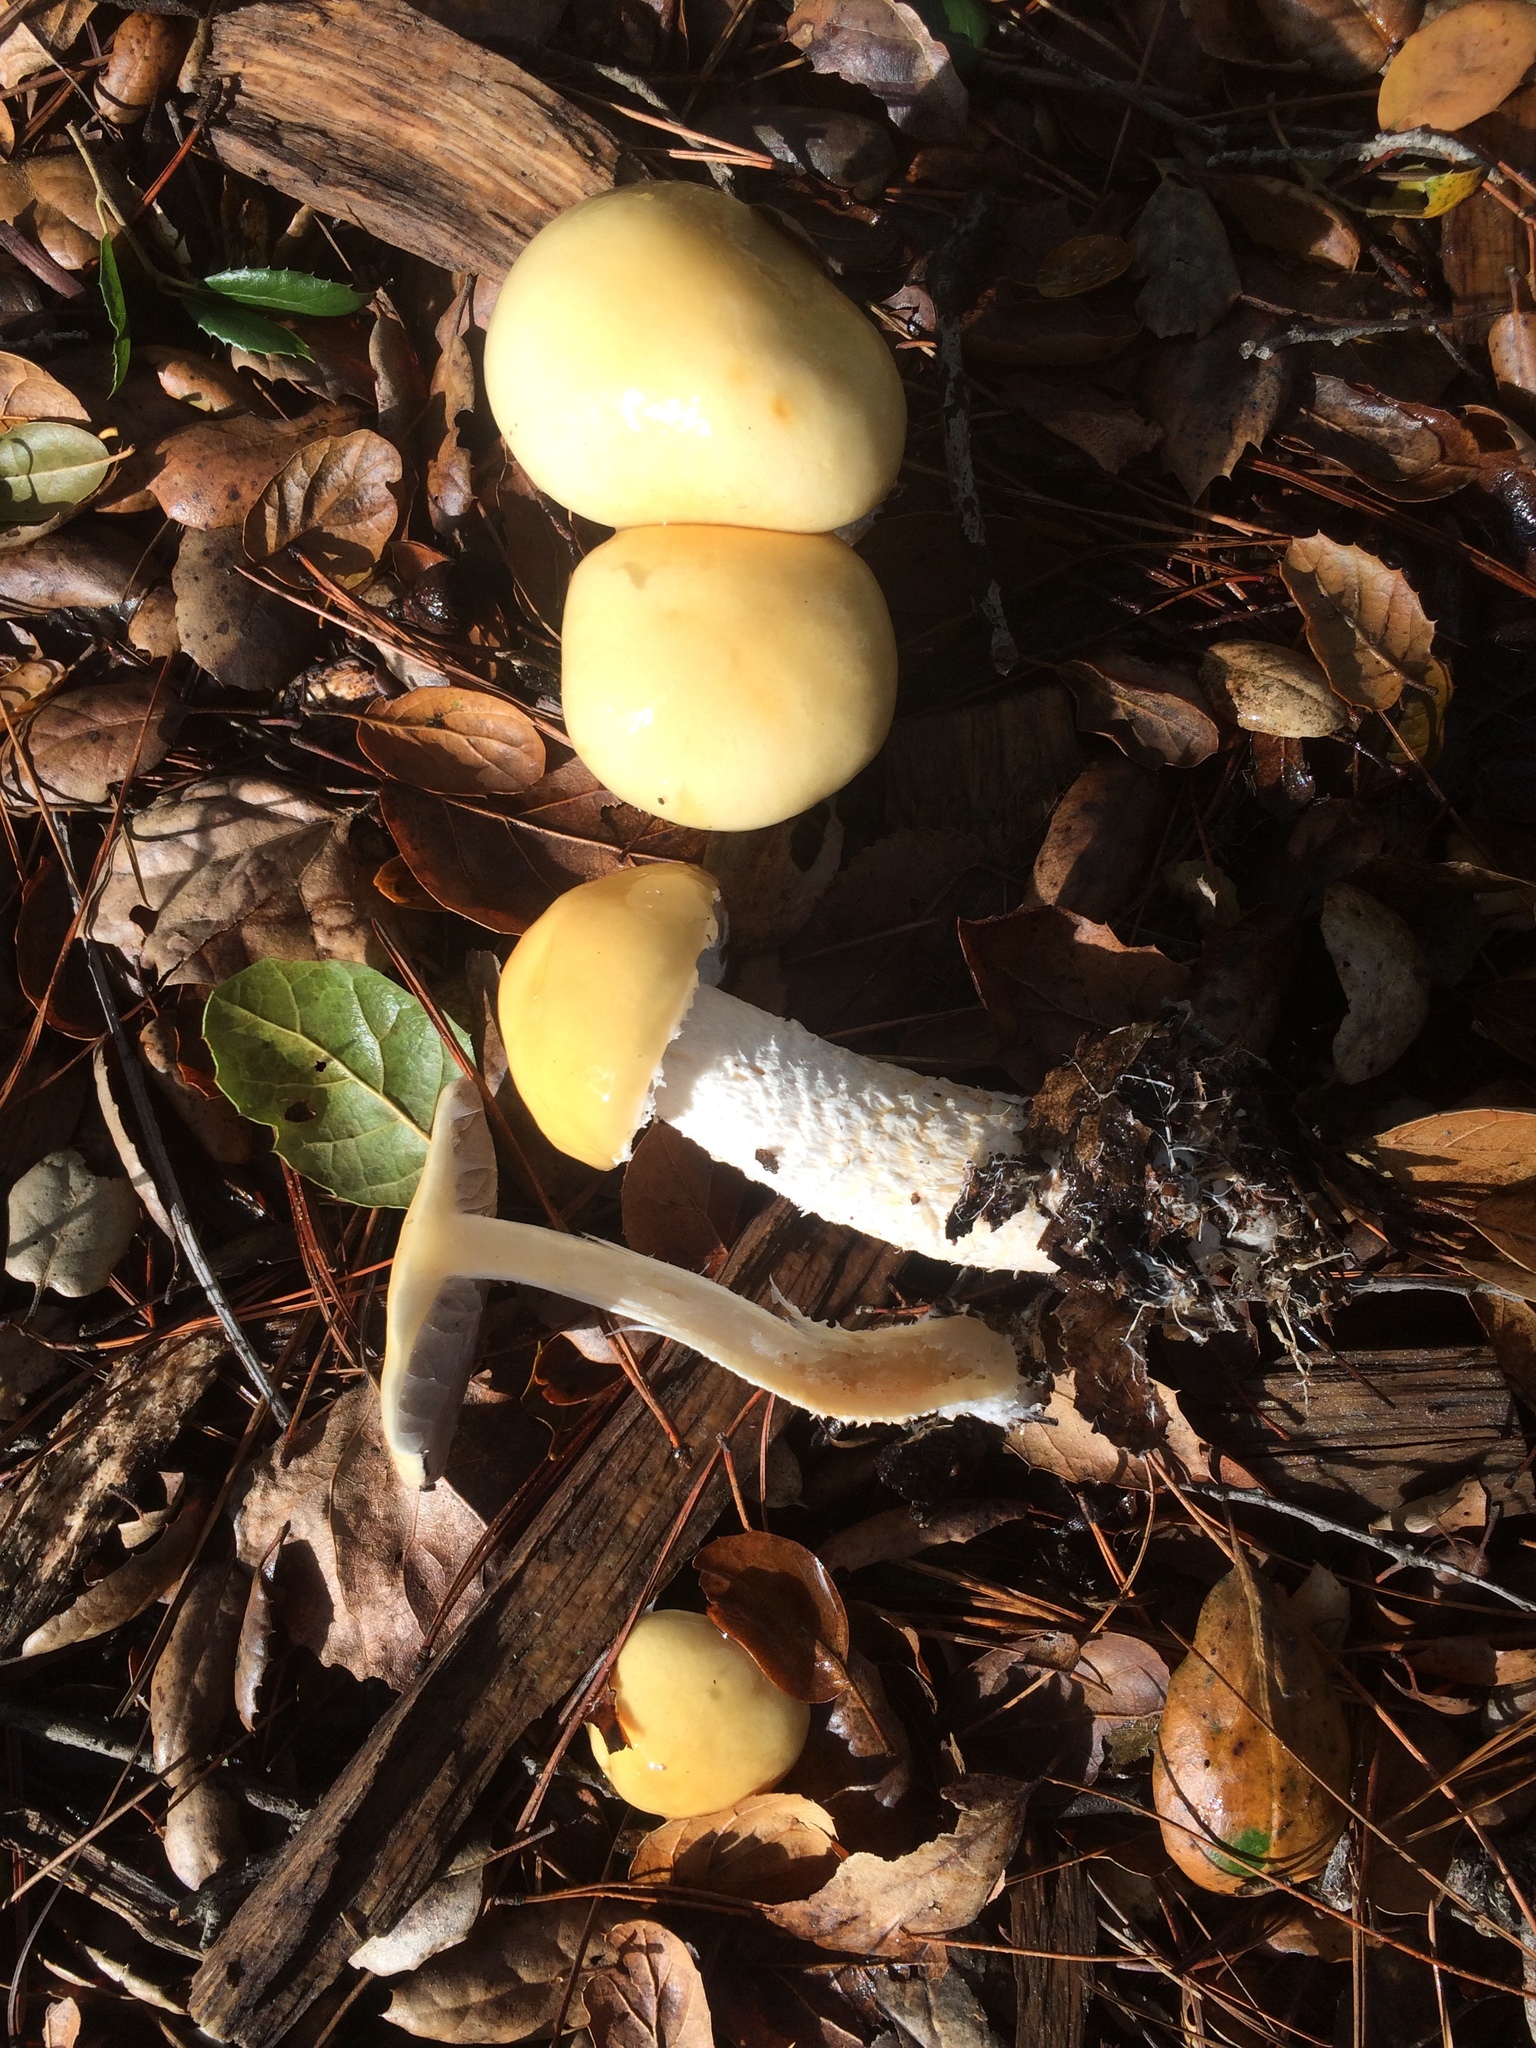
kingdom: Fungi
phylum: Basidiomycota
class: Agaricomycetes
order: Agaricales
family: Strophariaceae
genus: Stropharia
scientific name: Stropharia ambigua
